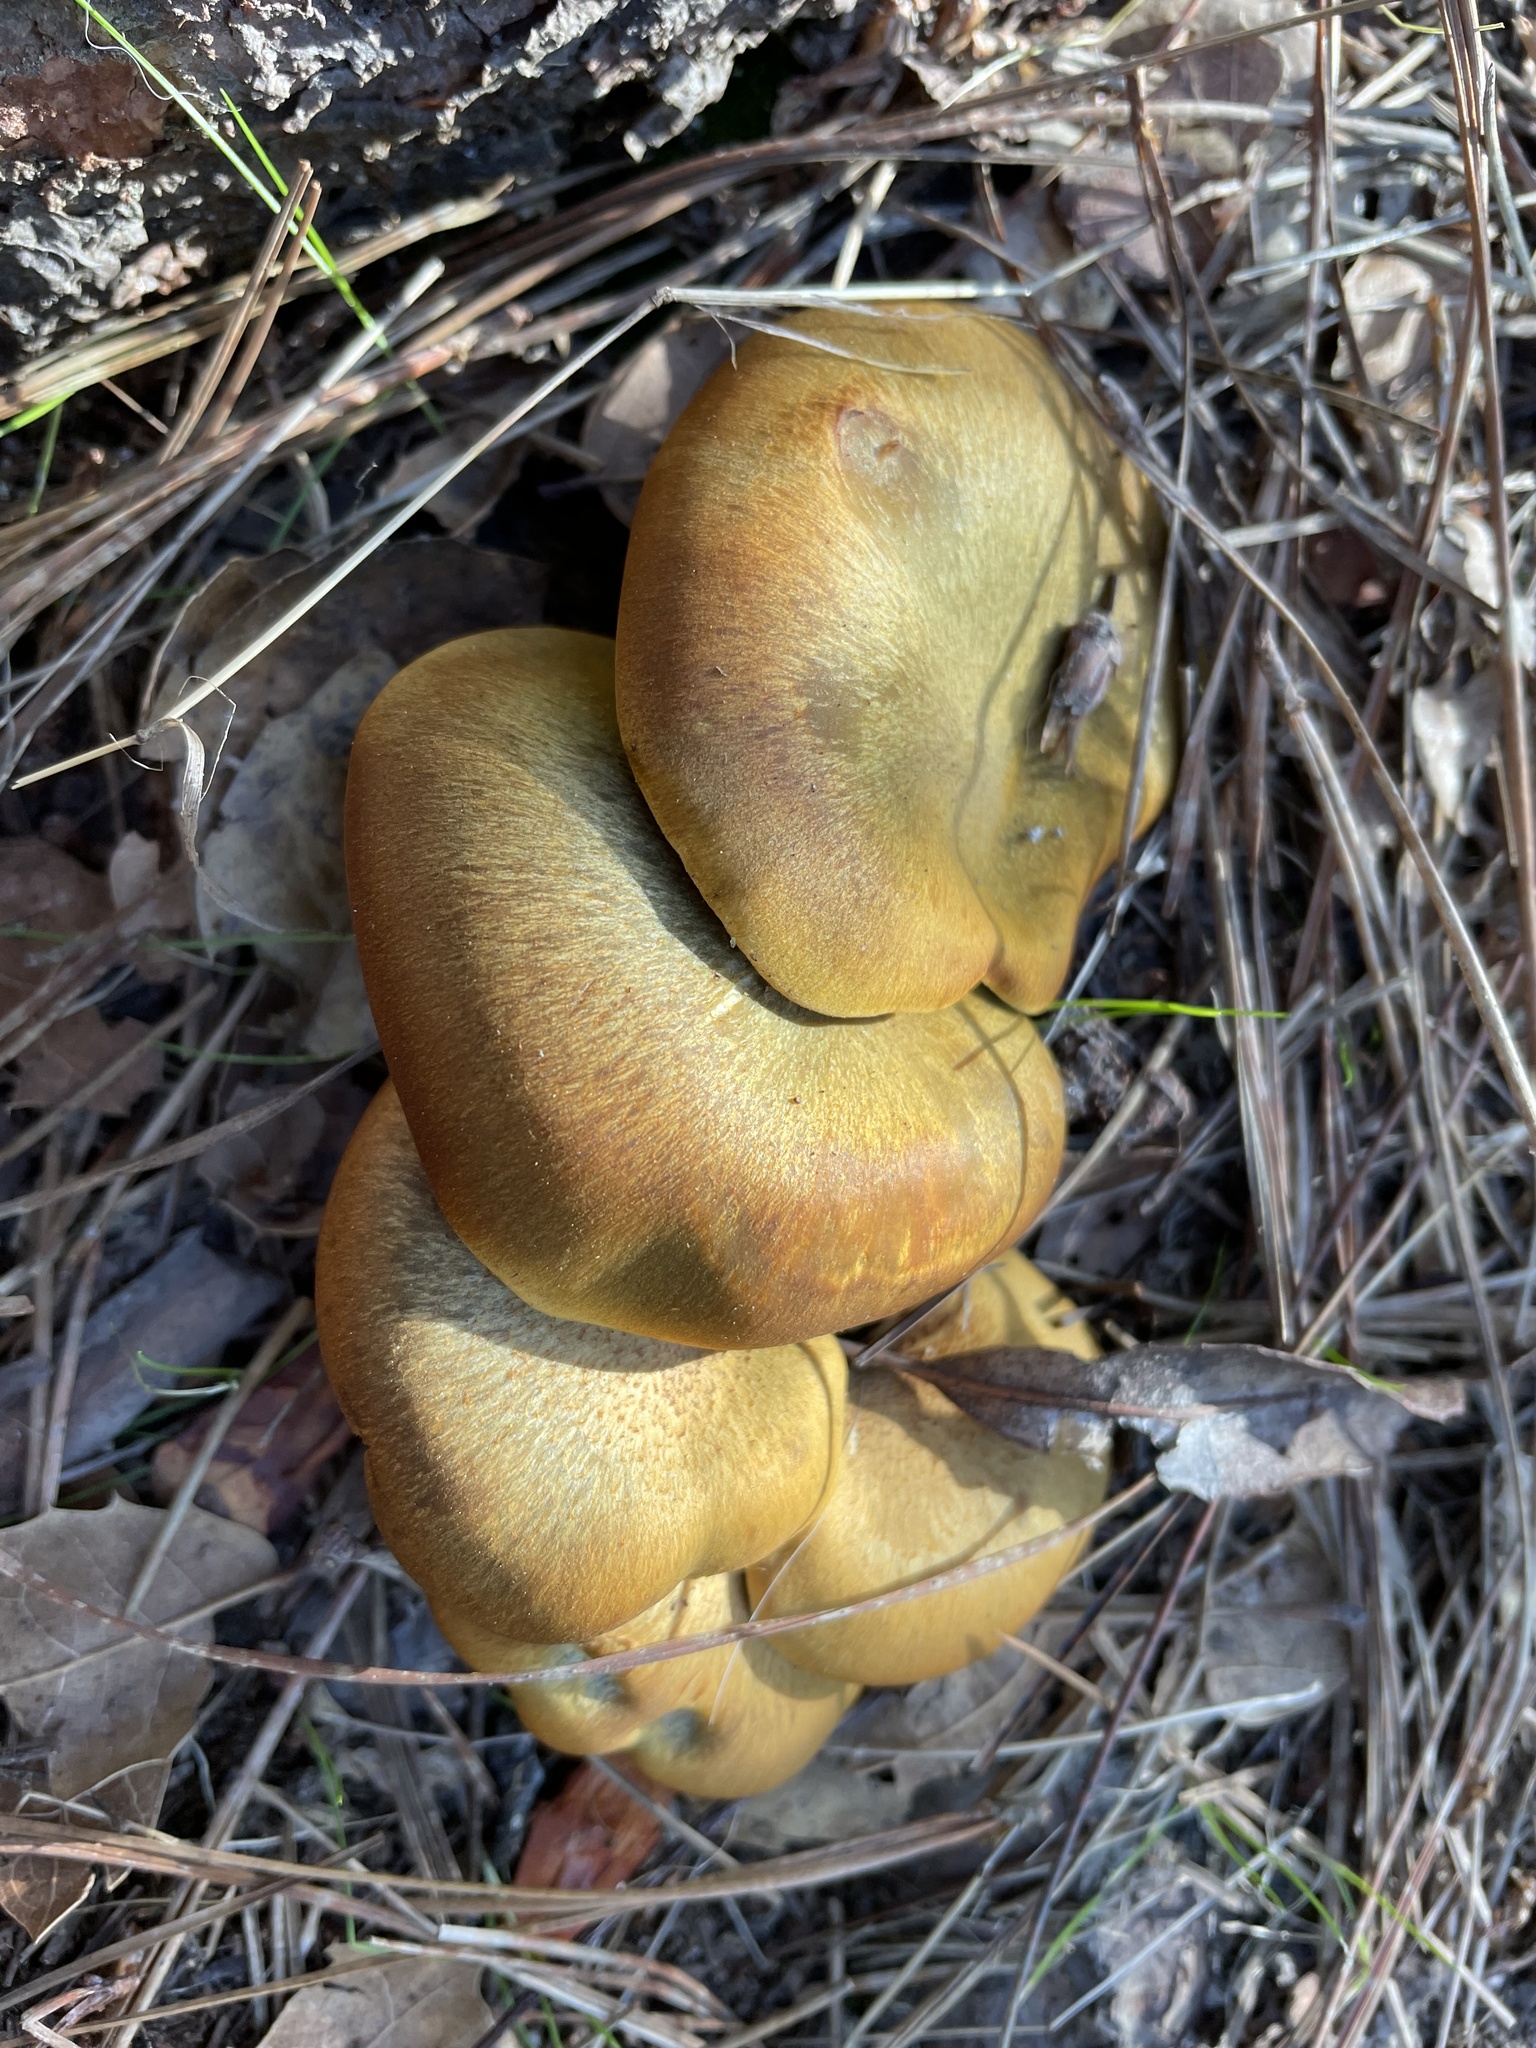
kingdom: Fungi
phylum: Basidiomycota
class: Agaricomycetes
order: Agaricales
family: Omphalotaceae
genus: Omphalotus
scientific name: Omphalotus olivascens
